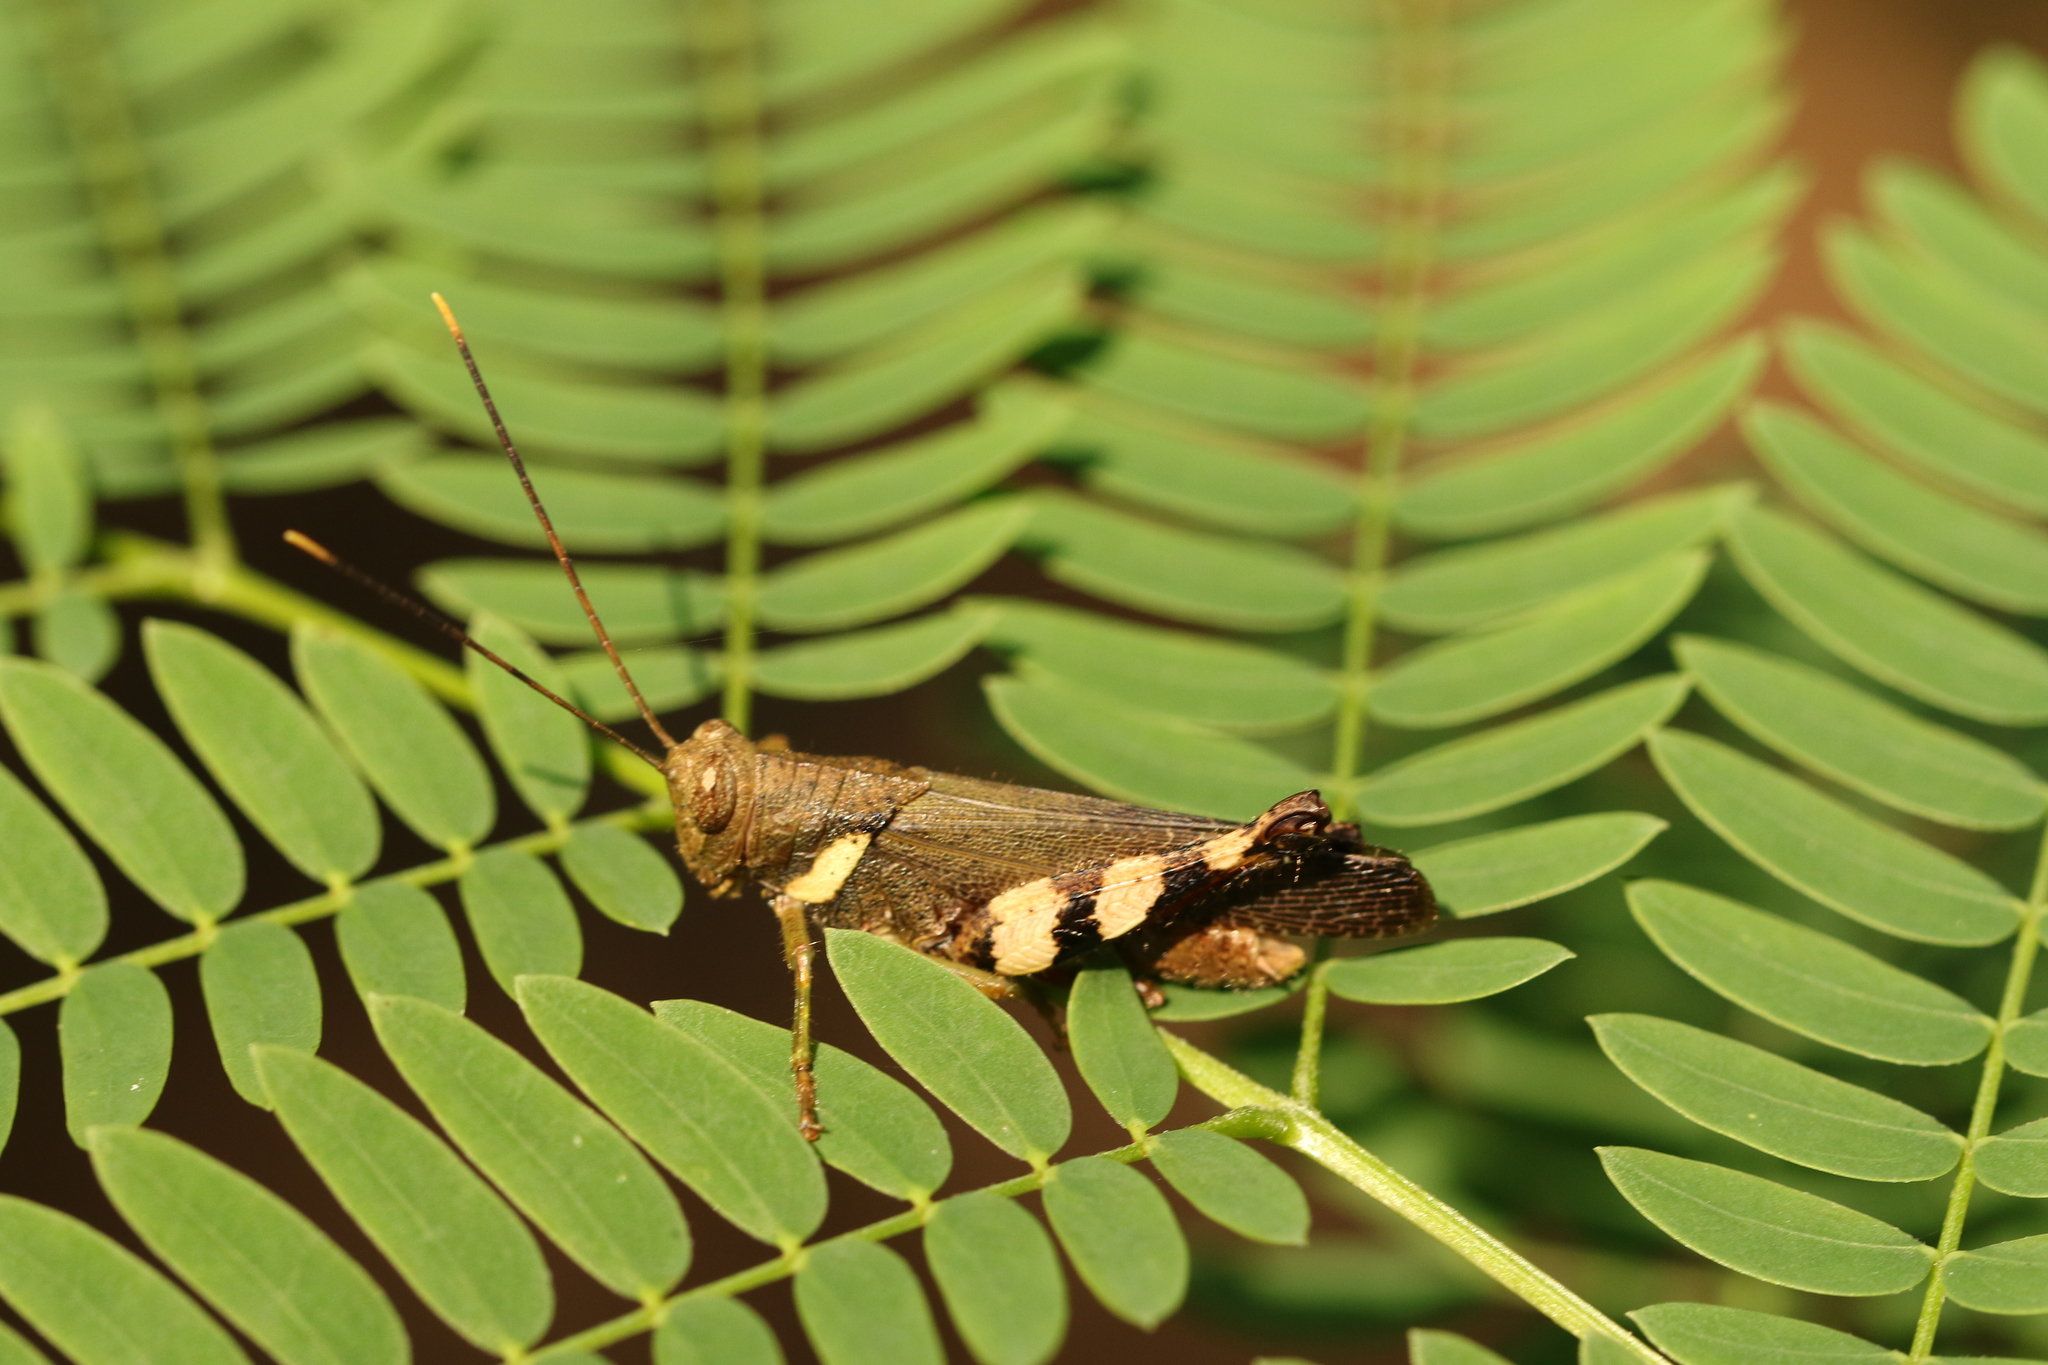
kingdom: Animalia
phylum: Arthropoda
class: Insecta
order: Orthoptera
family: Acrididae
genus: Apalacris
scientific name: Apalacris varicornis
